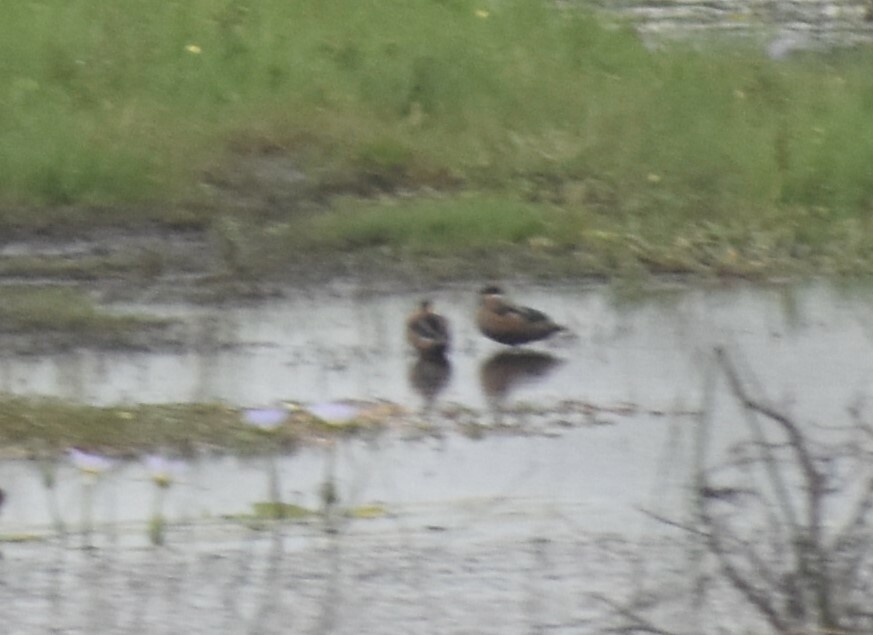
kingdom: Animalia
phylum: Chordata
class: Aves
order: Anseriformes
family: Anatidae
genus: Spatula
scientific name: Spatula hottentota
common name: Blue-billed teal
